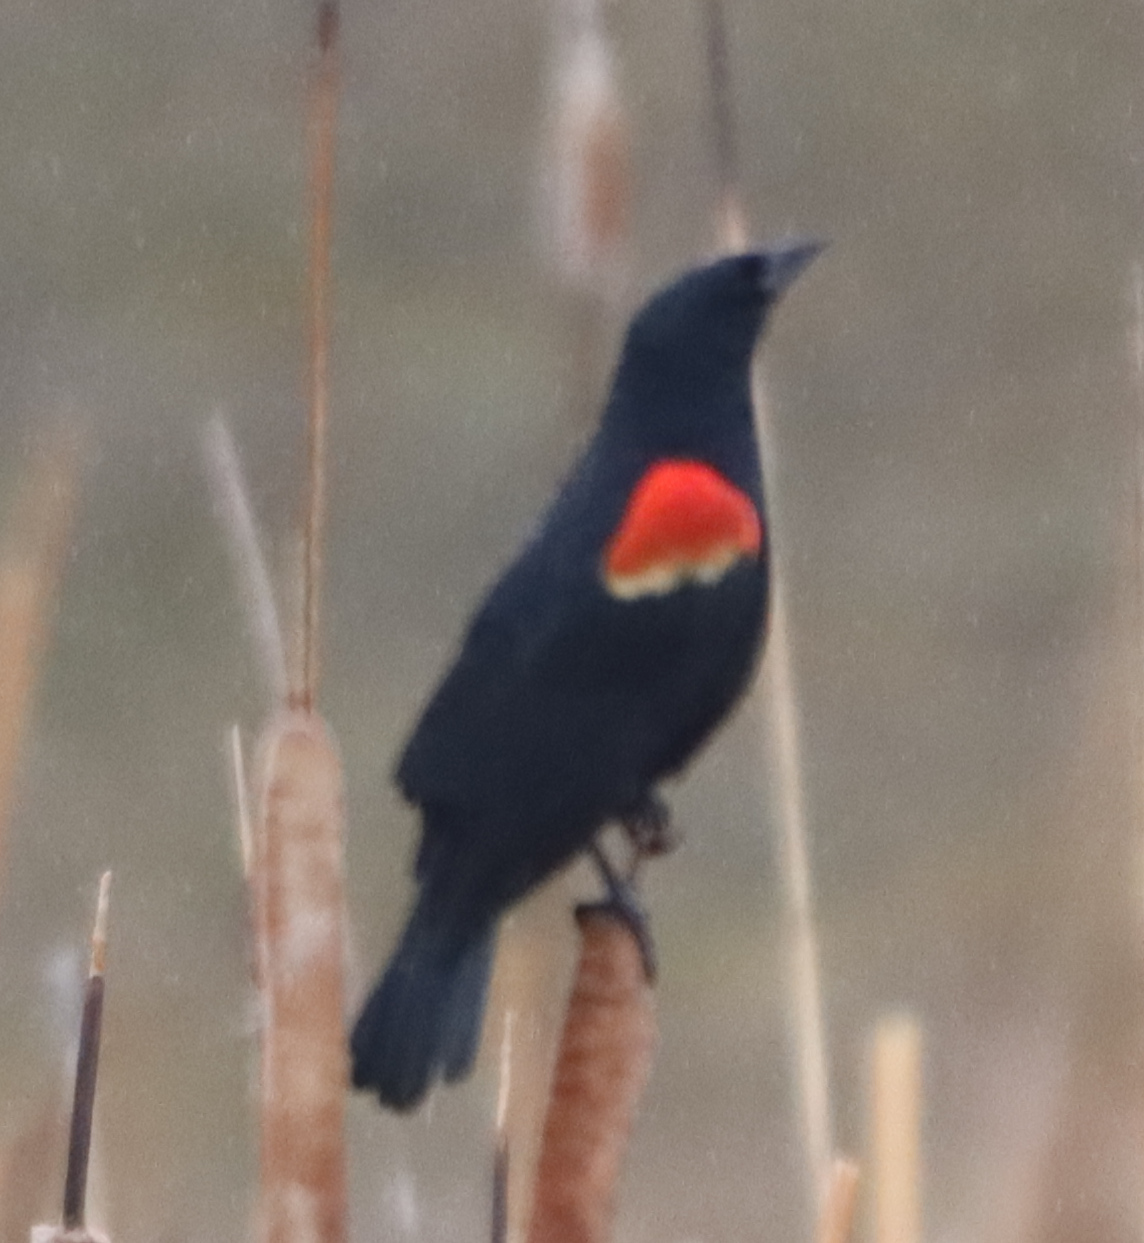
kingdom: Animalia
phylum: Chordata
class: Aves
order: Passeriformes
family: Icteridae
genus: Agelaius
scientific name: Agelaius phoeniceus
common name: Red-winged blackbird
